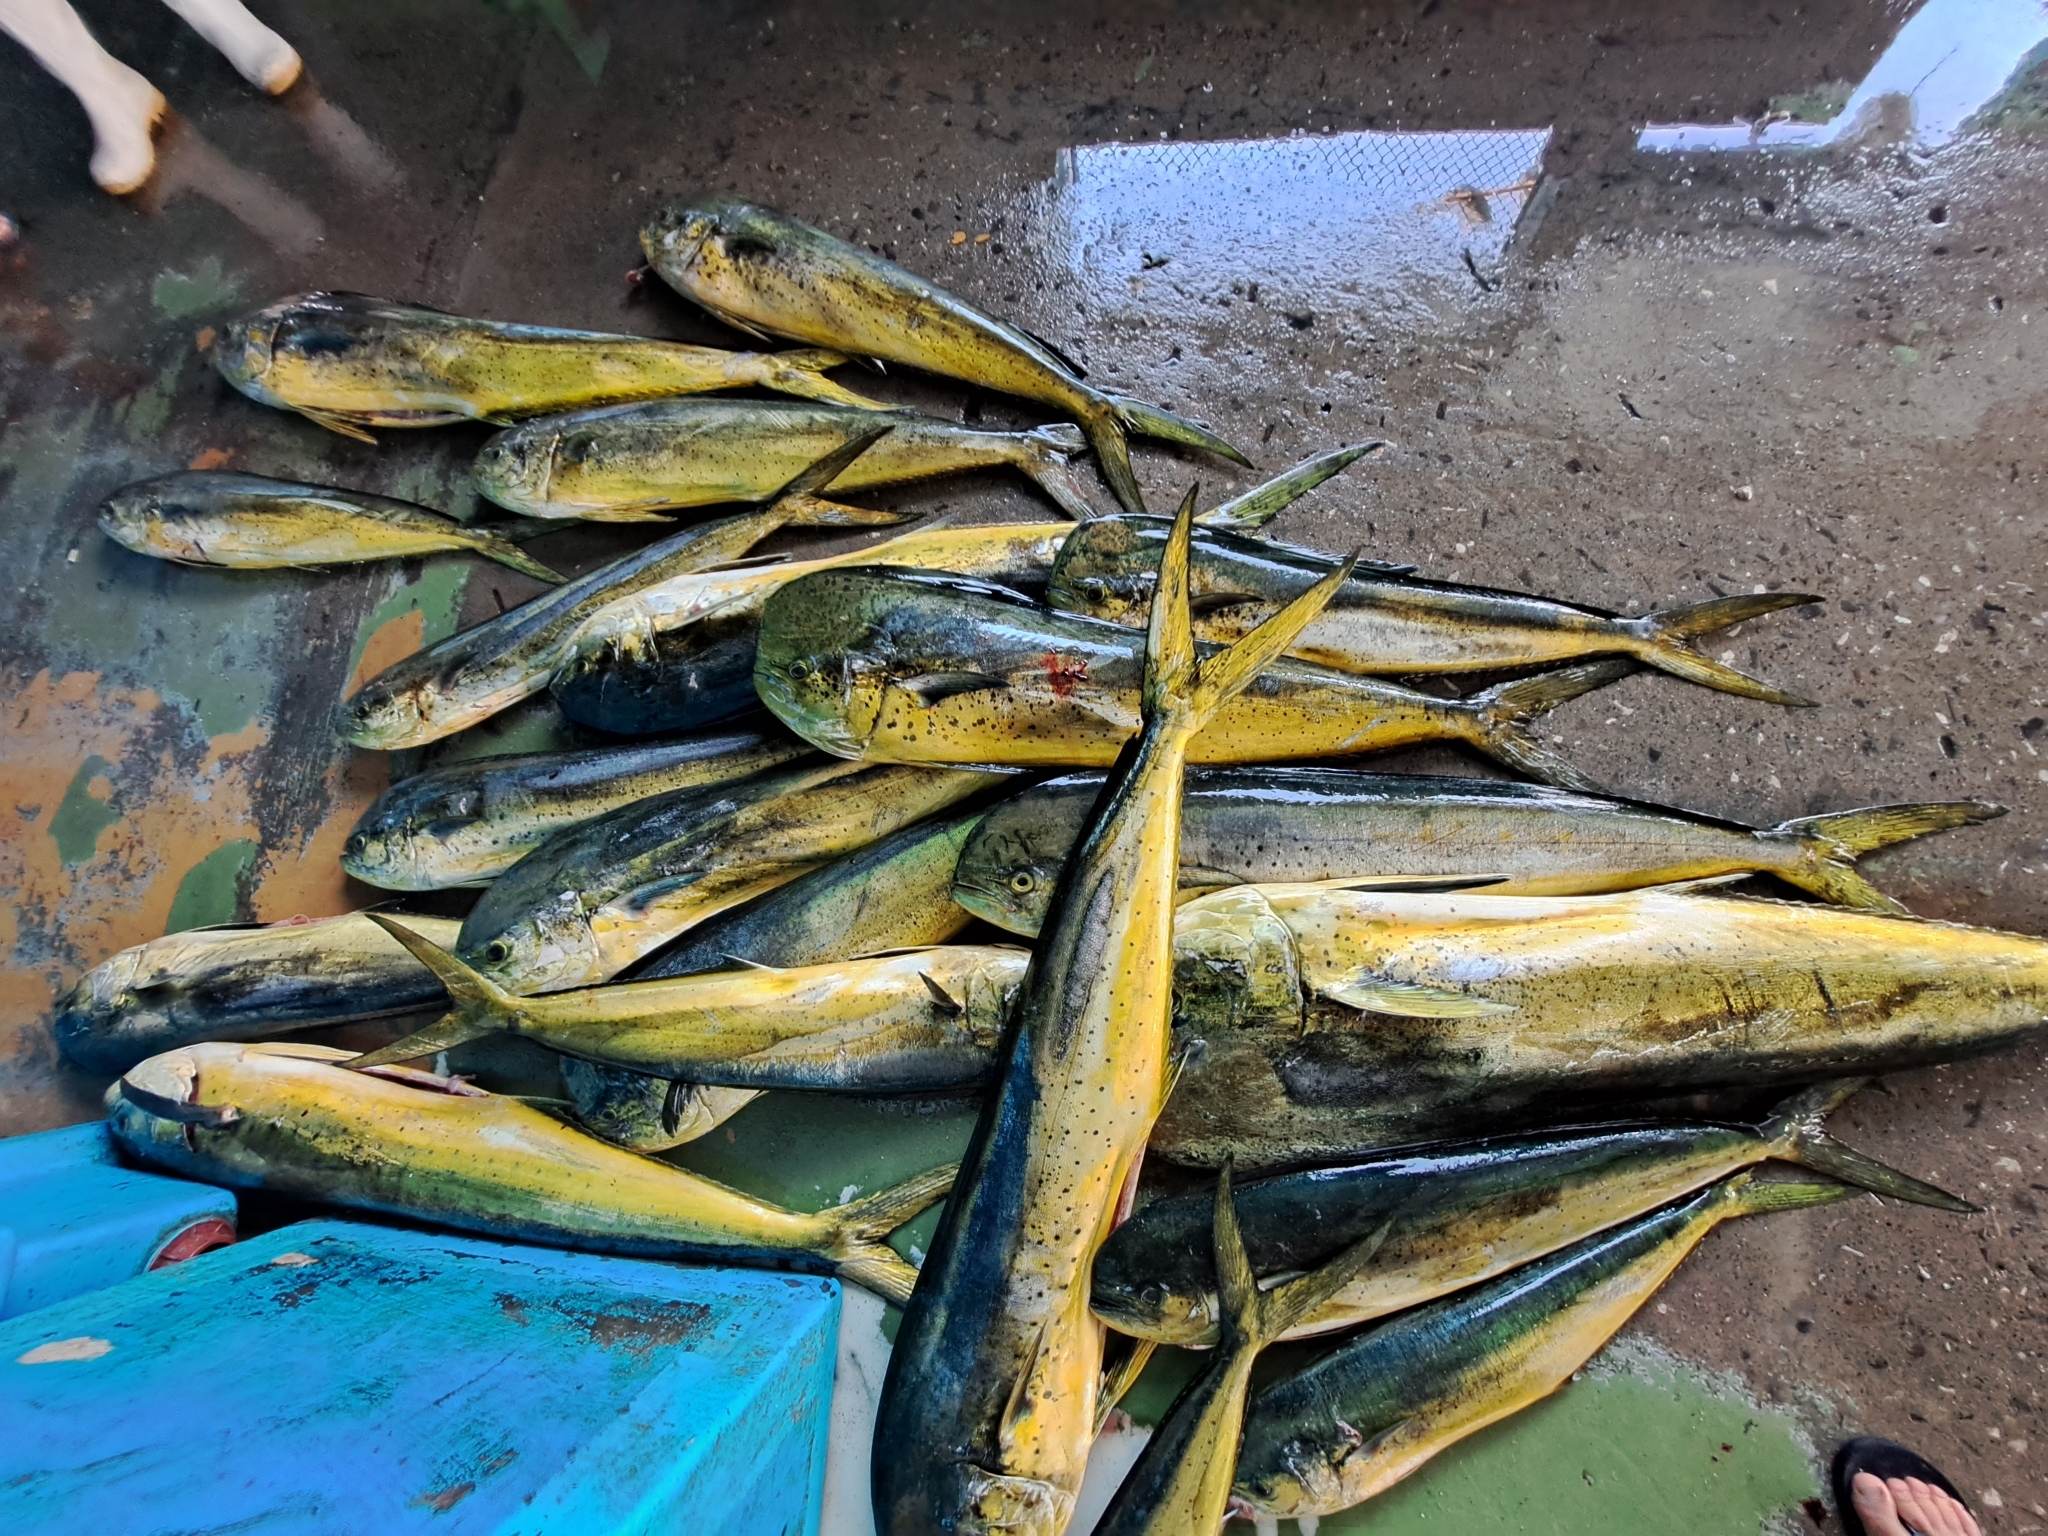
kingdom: Animalia
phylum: Chordata
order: Perciformes
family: Coryphaenidae
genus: Coryphaena
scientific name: Coryphaena hippurus
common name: Dolphin
